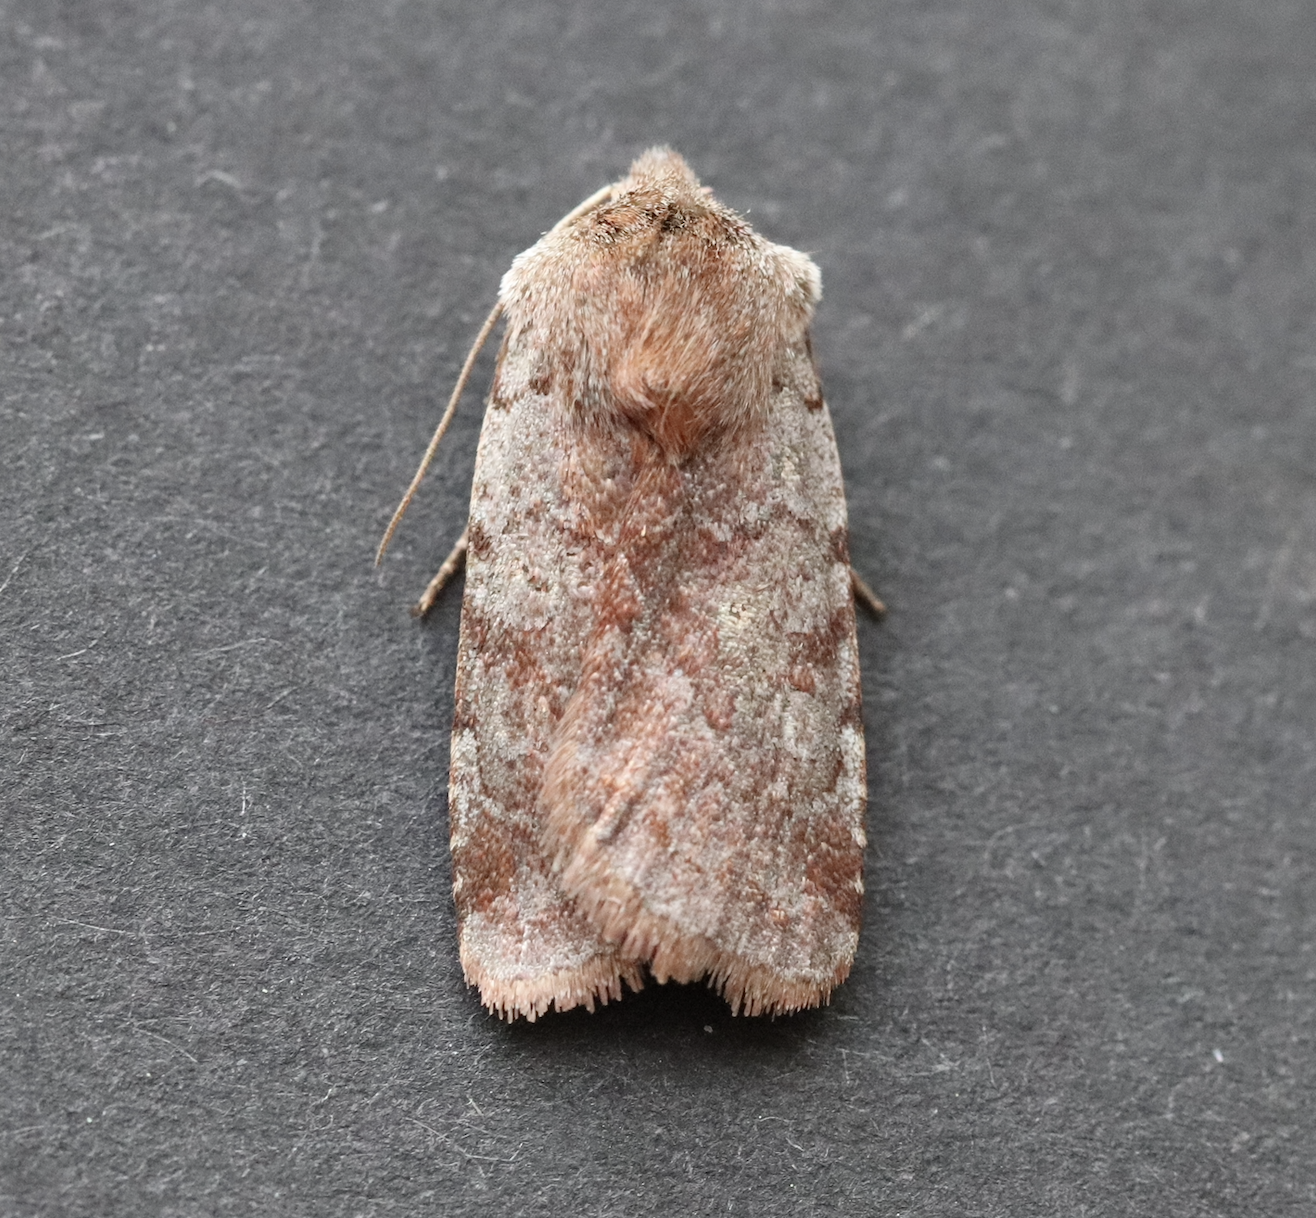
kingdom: Animalia
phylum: Arthropoda
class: Insecta
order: Lepidoptera
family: Noctuidae
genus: Cerastis
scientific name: Cerastis rubricosa
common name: Red chestnut
